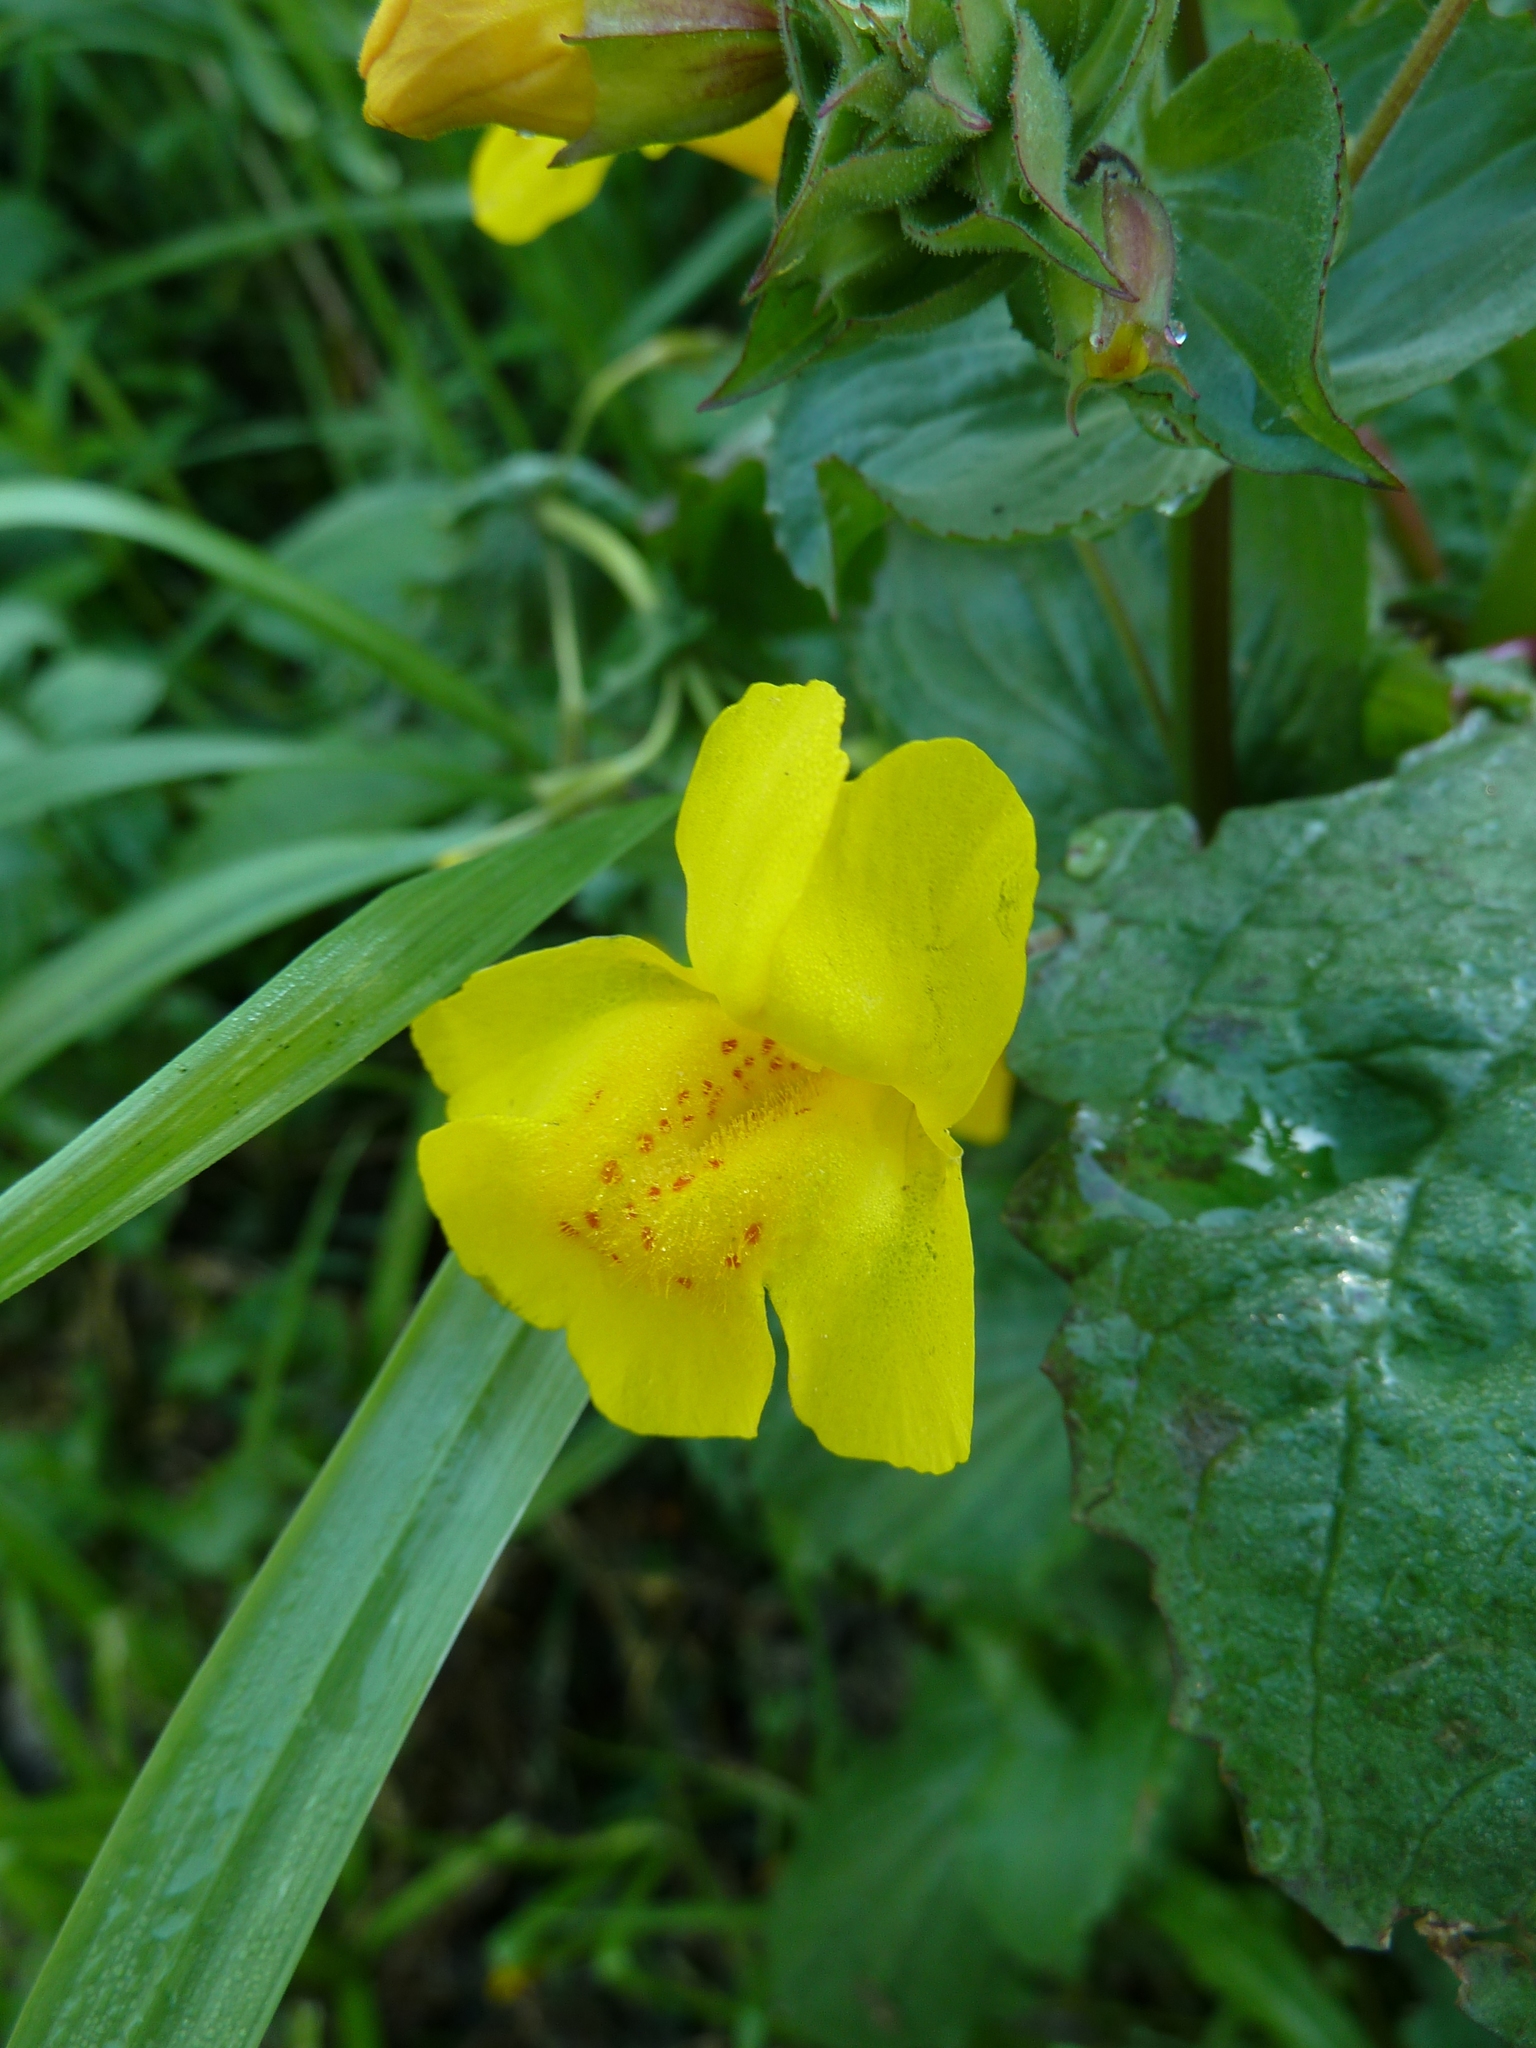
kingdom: Plantae
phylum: Tracheophyta
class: Magnoliopsida
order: Lamiales
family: Phrymaceae
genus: Erythranthe
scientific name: Erythranthe guttata
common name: Monkeyflower
